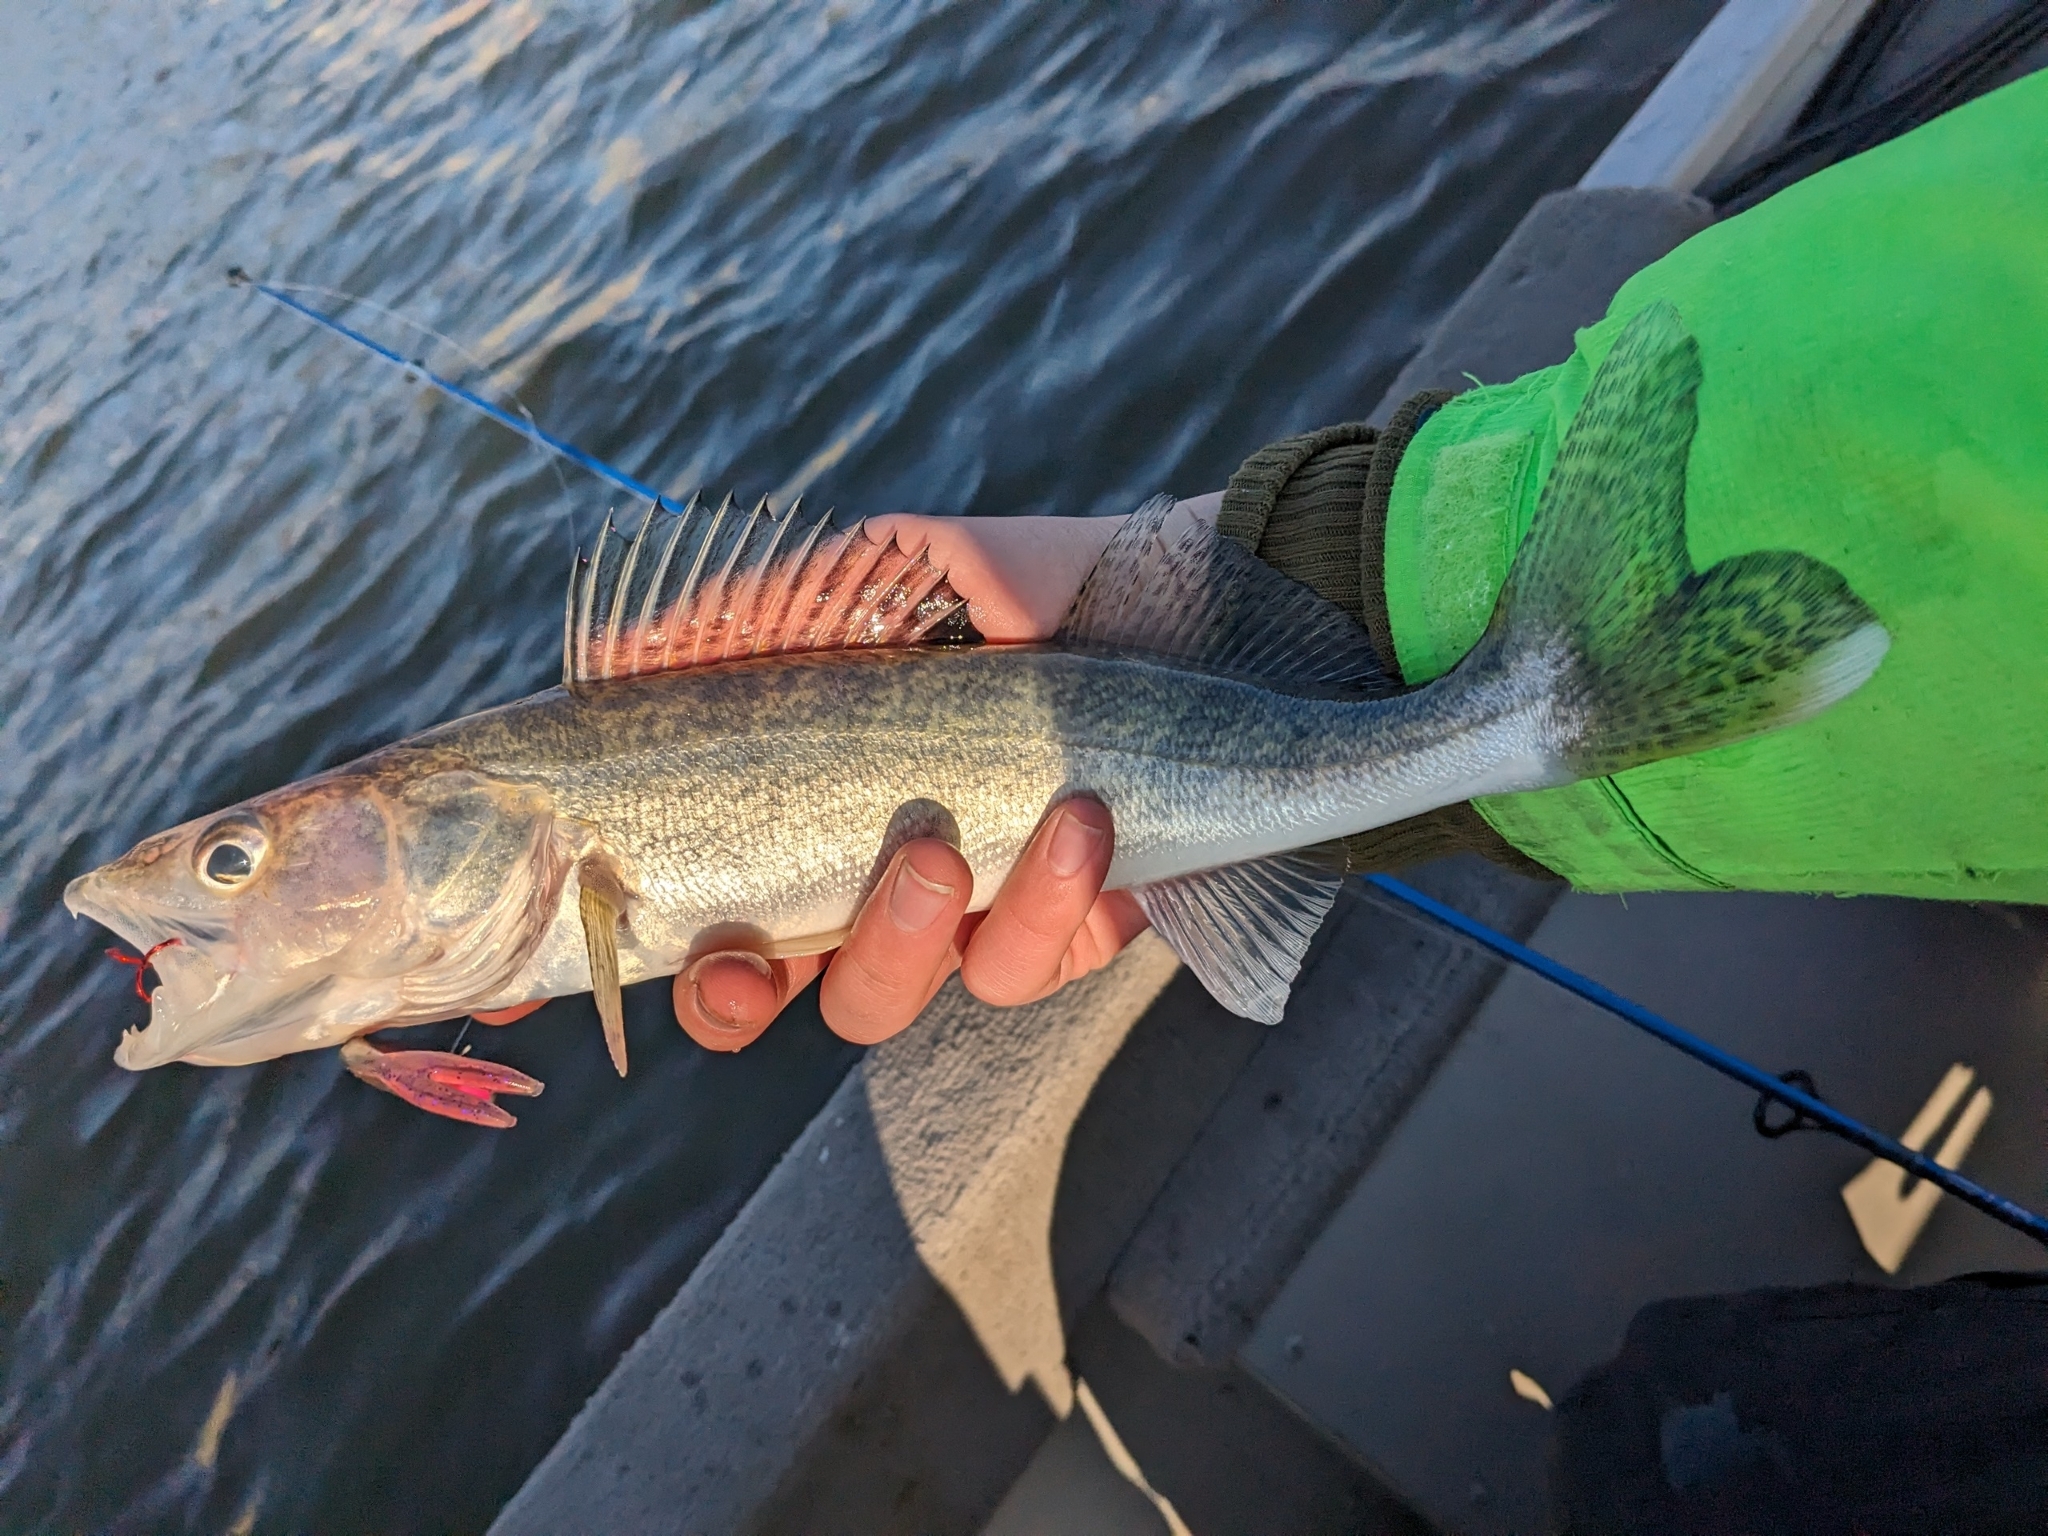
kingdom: Animalia
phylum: Chordata
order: Perciformes
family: Percidae
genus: Sander
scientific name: Sander vitreus
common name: Walleye
